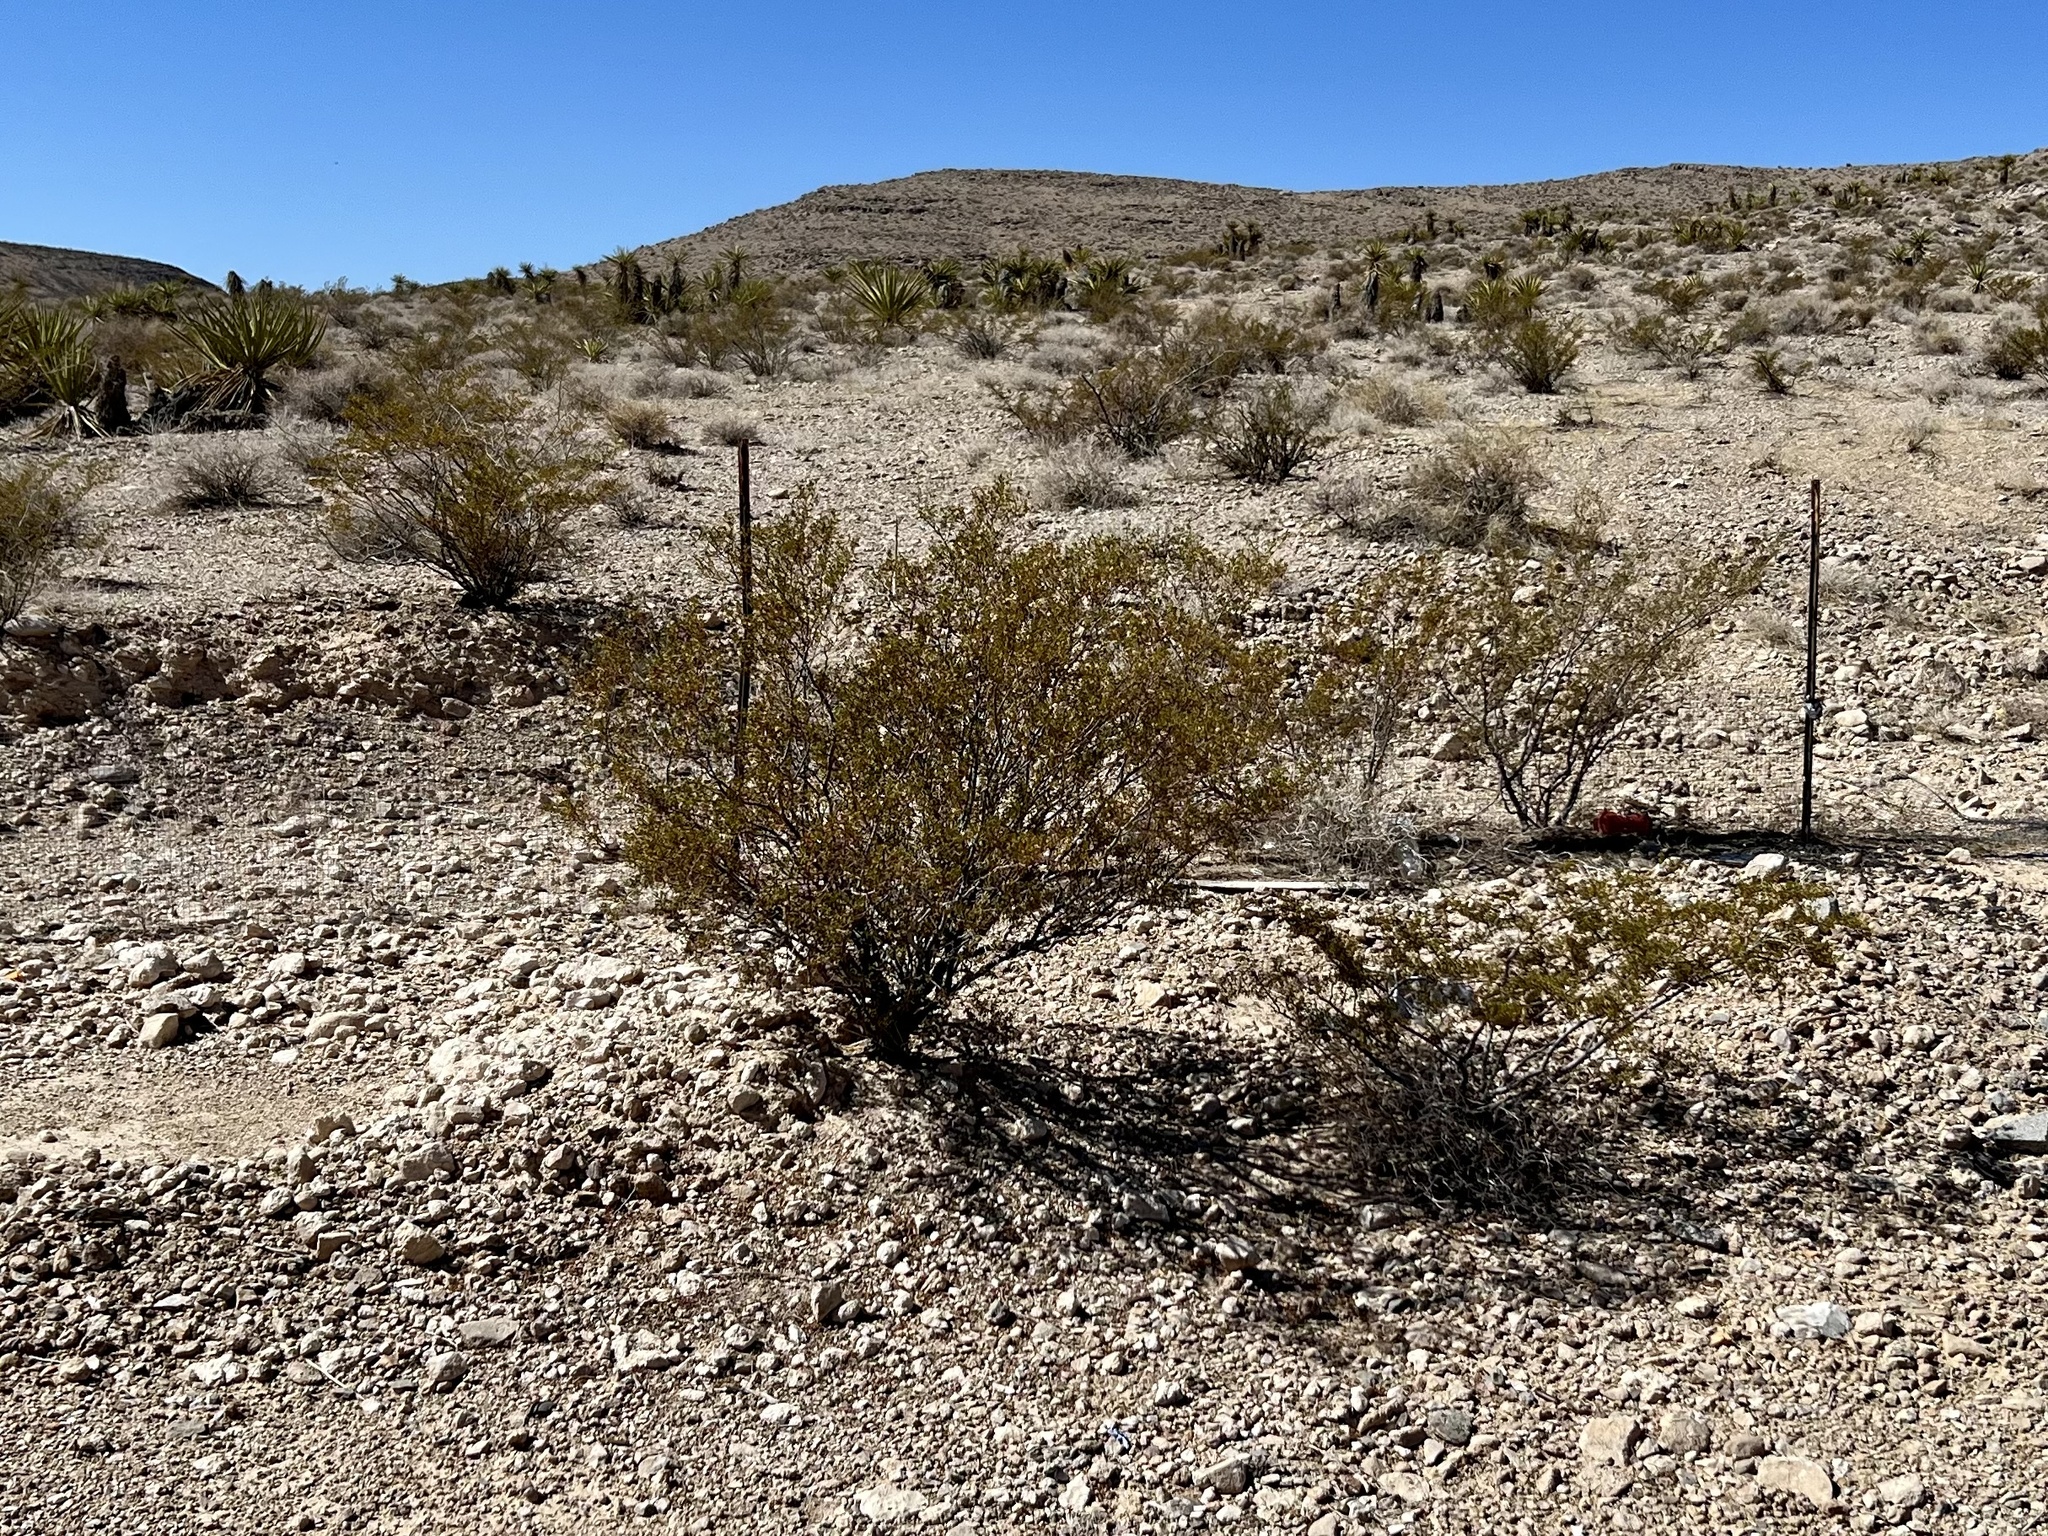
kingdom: Plantae
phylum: Tracheophyta
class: Magnoliopsida
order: Zygophyllales
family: Zygophyllaceae
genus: Larrea
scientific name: Larrea tridentata
